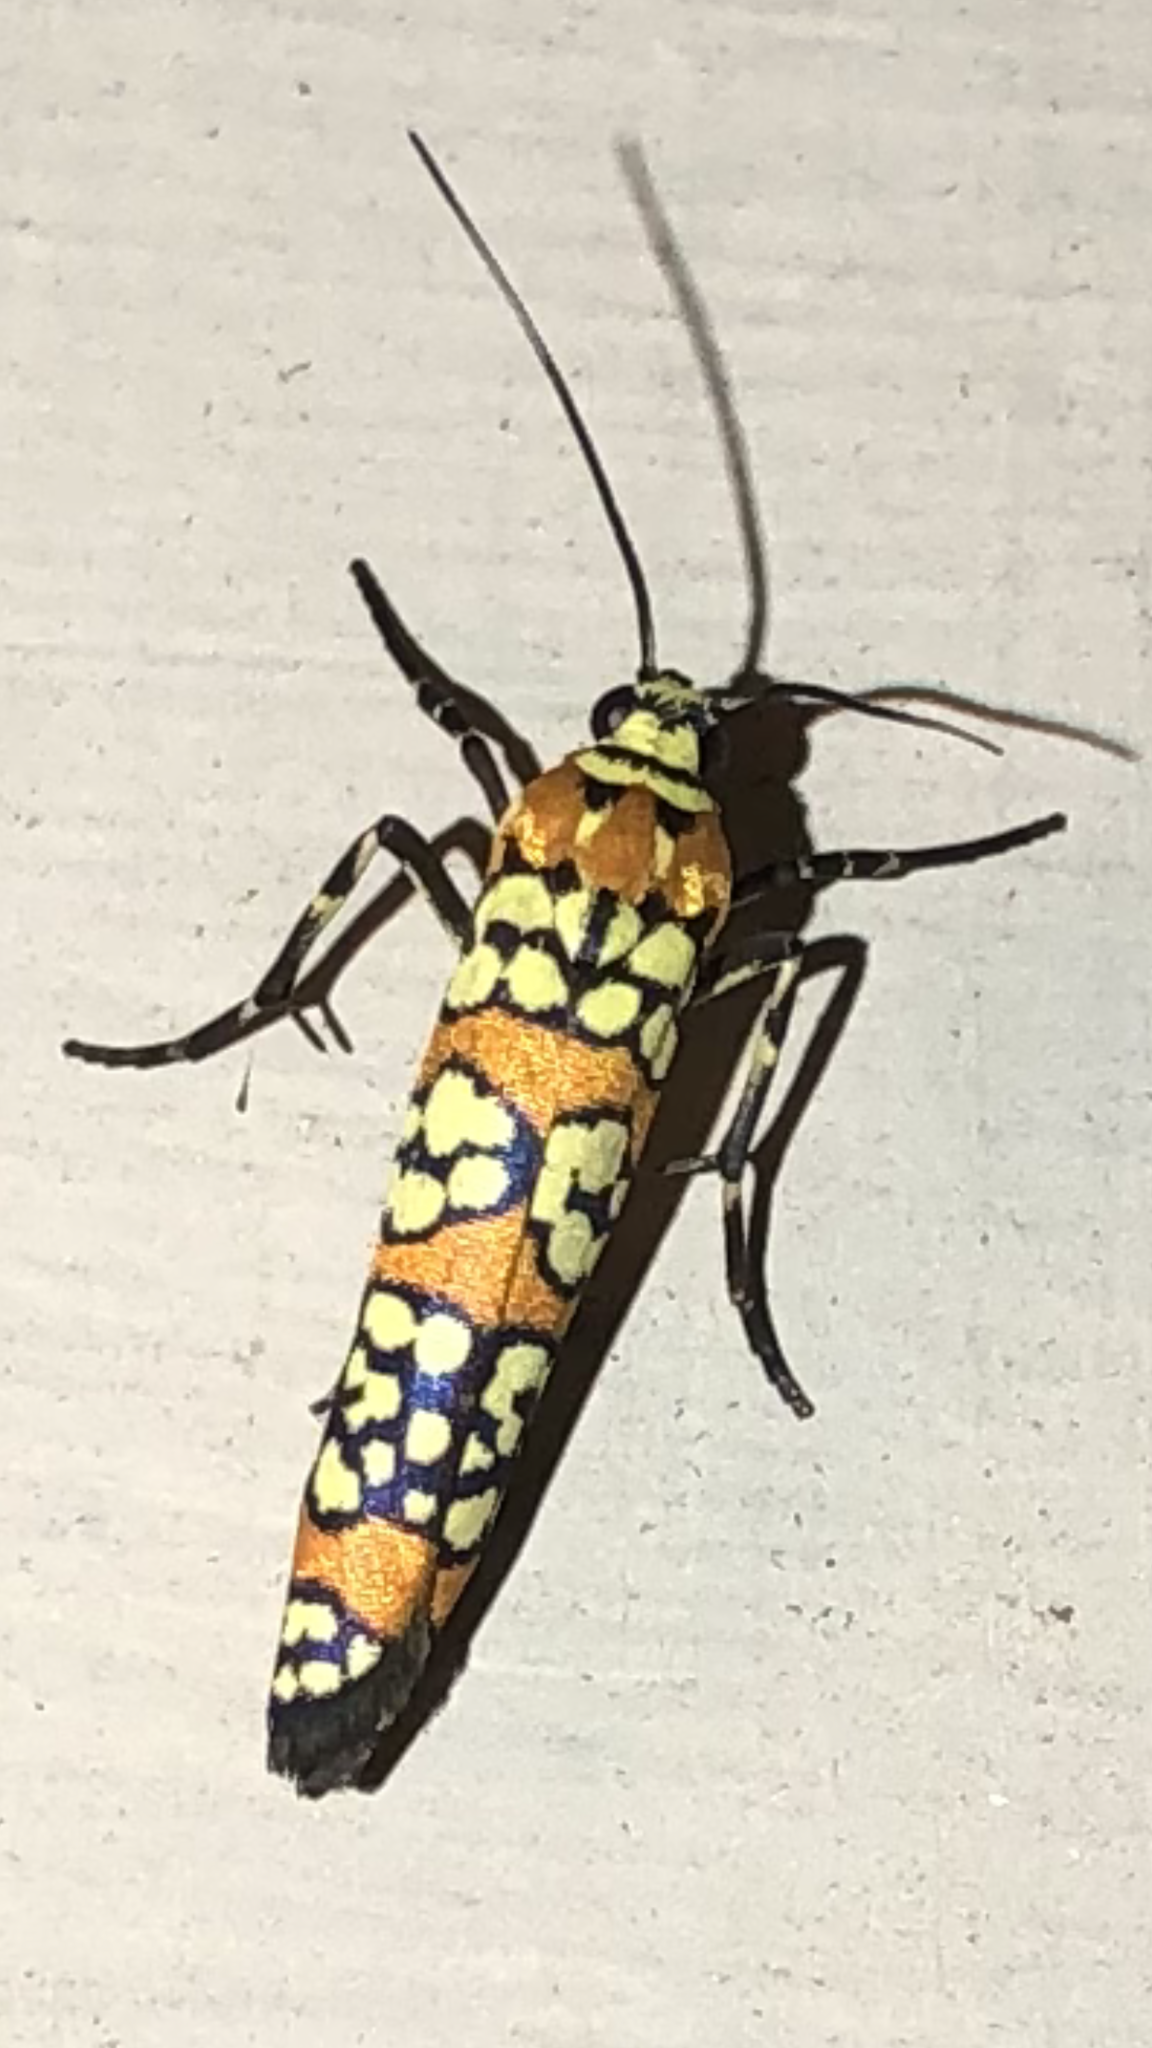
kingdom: Animalia
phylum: Arthropoda
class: Insecta
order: Lepidoptera
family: Attevidae
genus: Atteva
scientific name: Atteva punctella
